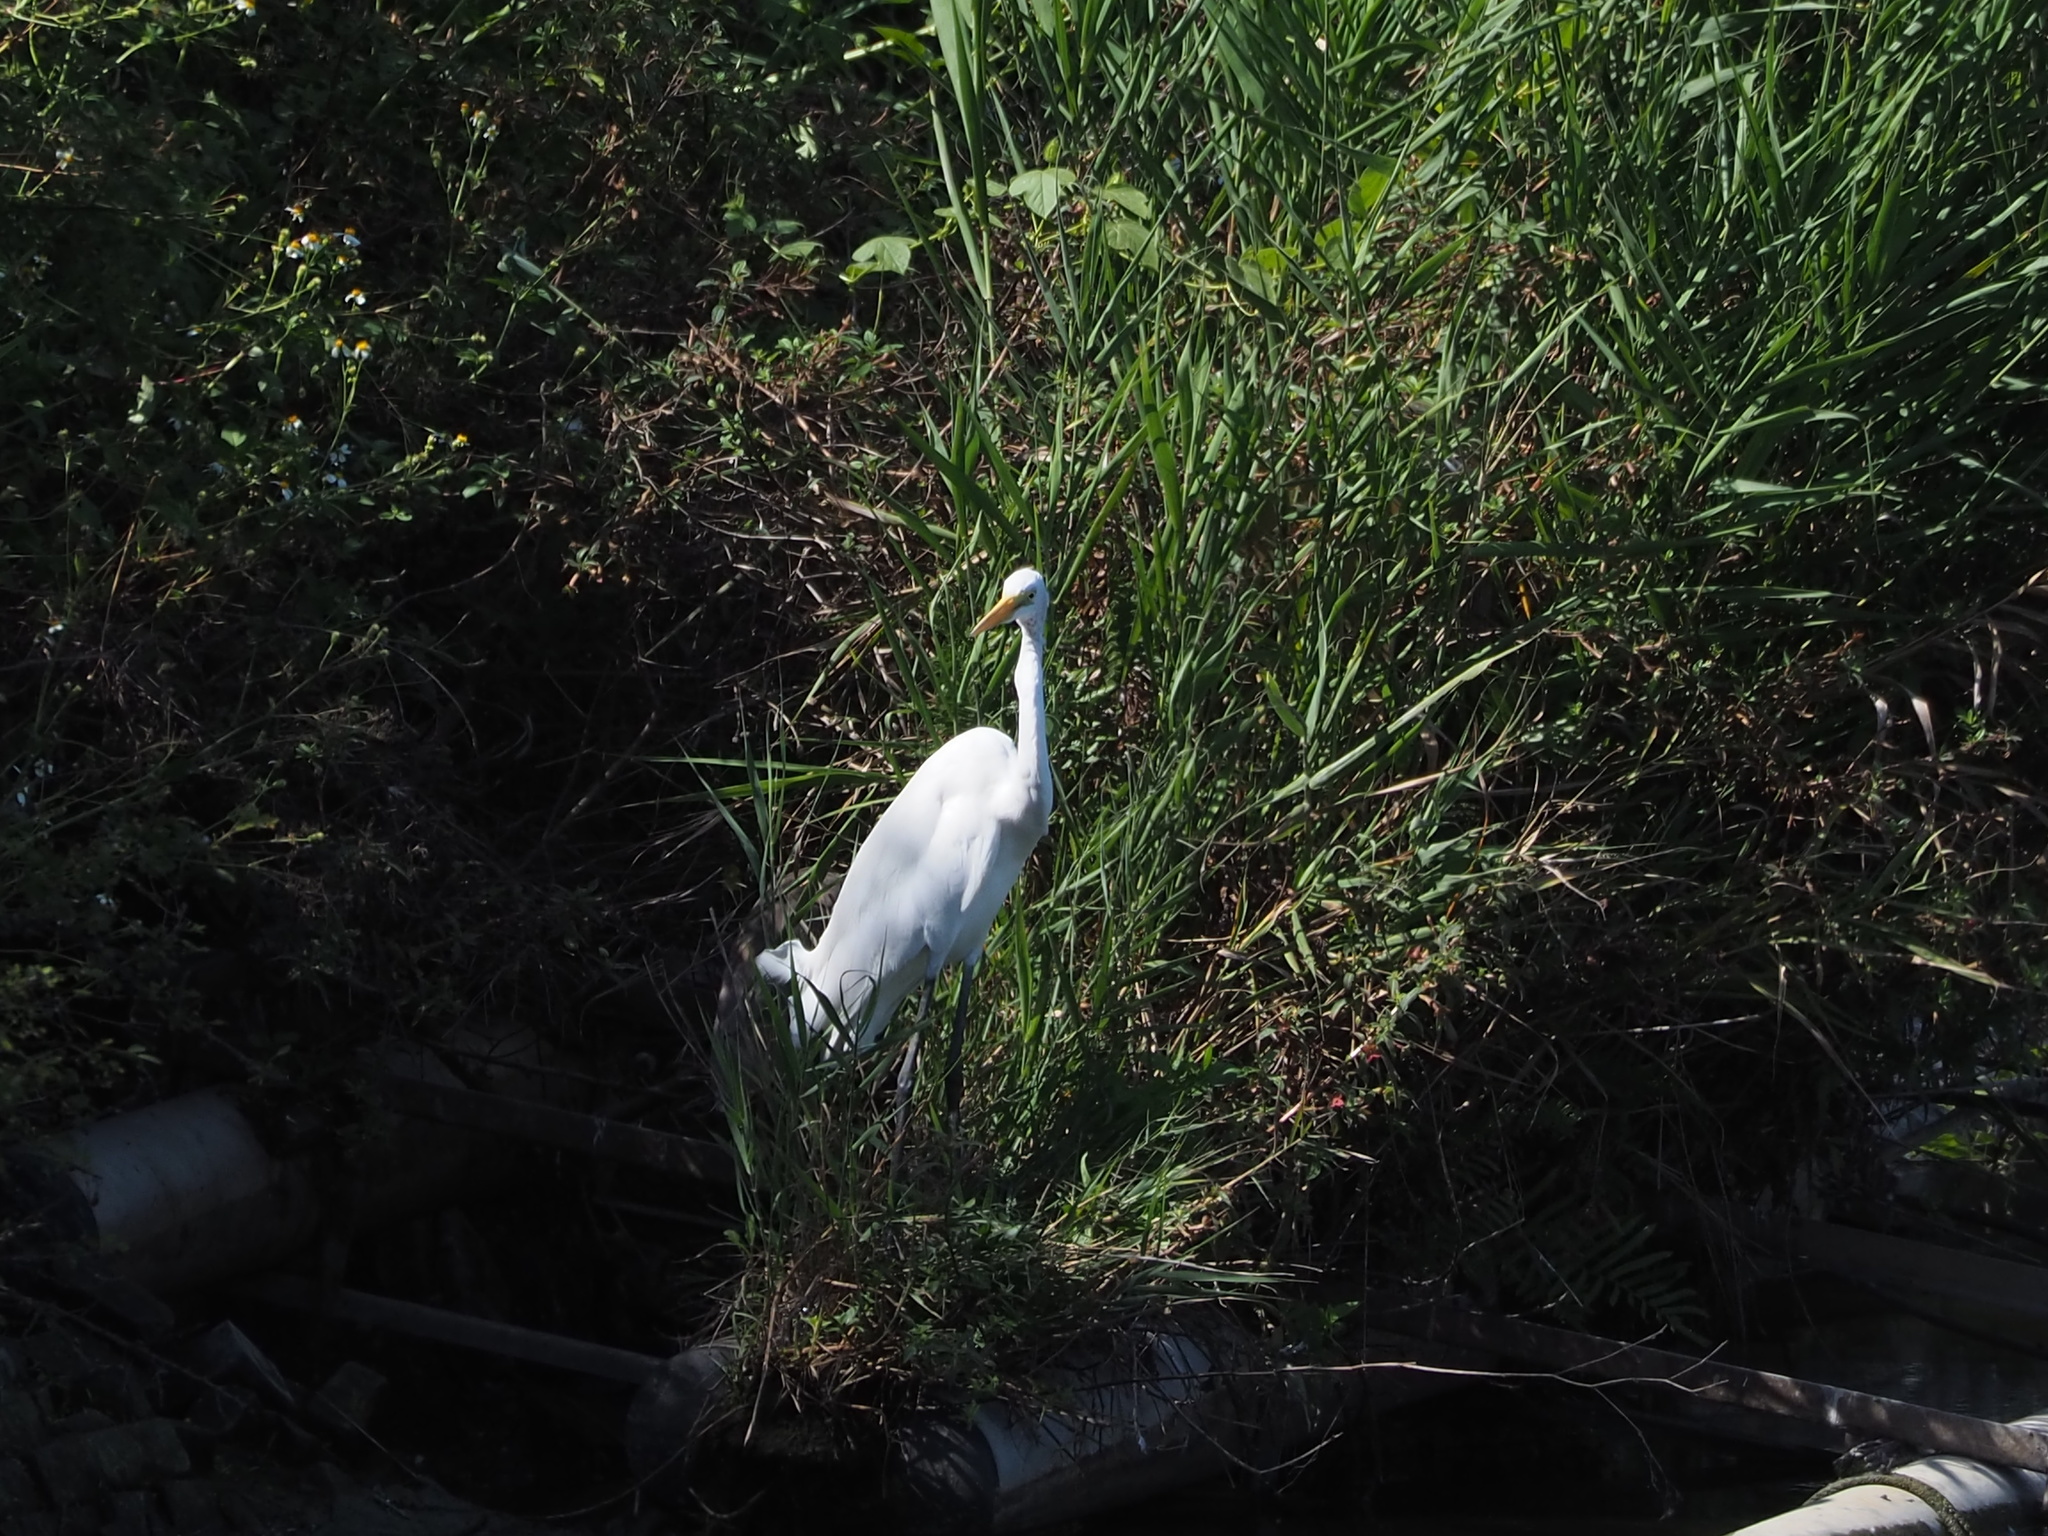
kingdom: Animalia
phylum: Chordata
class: Aves
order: Pelecaniformes
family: Ardeidae
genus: Egretta
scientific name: Egretta intermedia
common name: Intermediate egret
